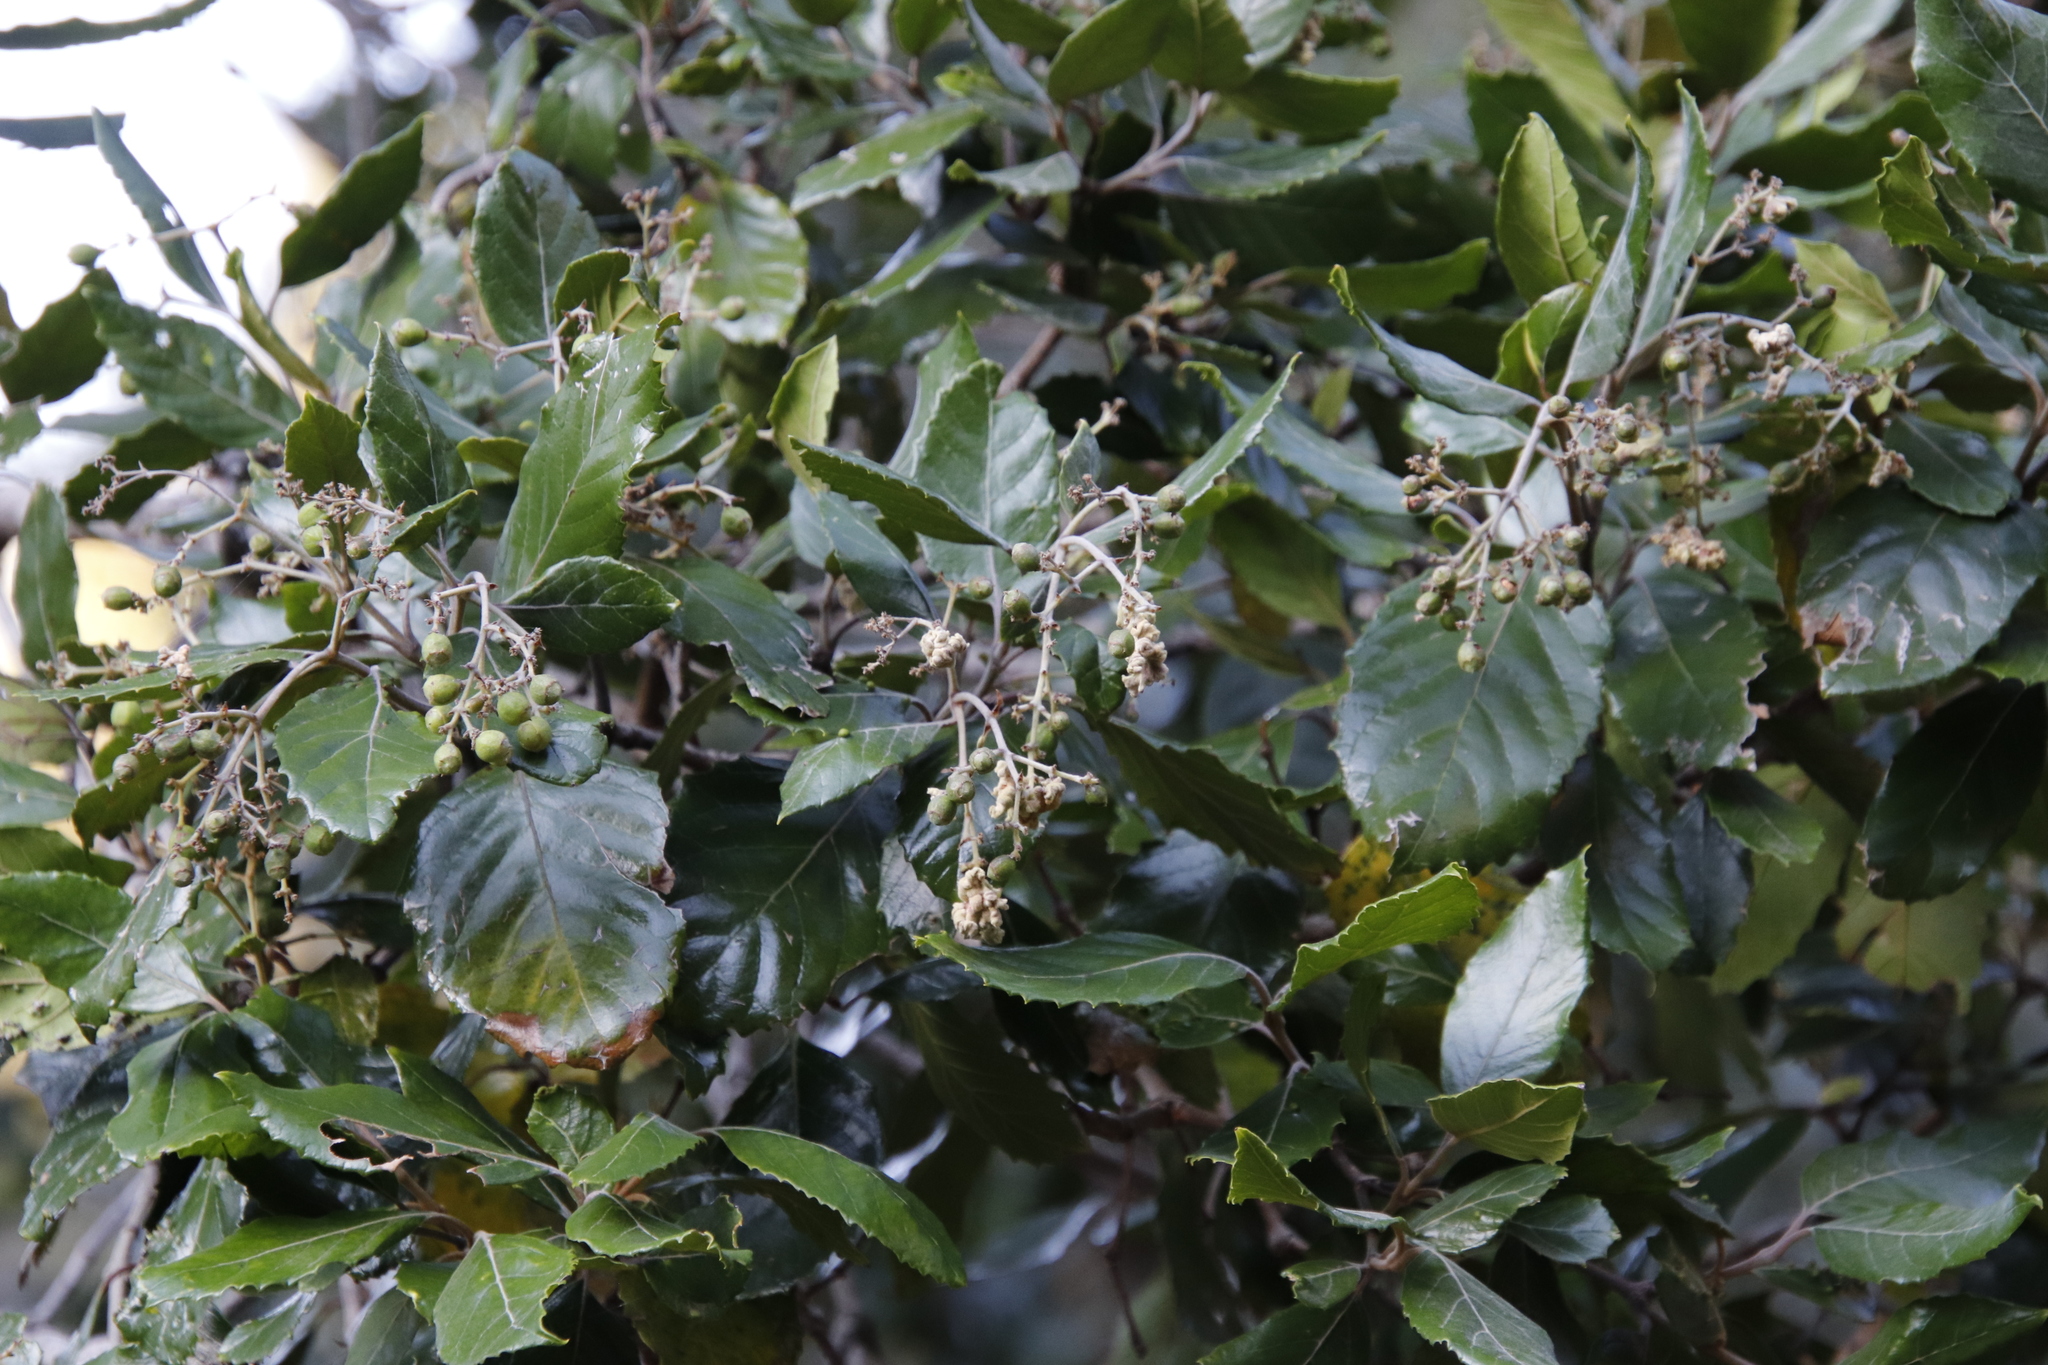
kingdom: Plantae
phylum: Tracheophyta
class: Magnoliopsida
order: Cornales
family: Curtisiaceae
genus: Curtisia
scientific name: Curtisia dentata
